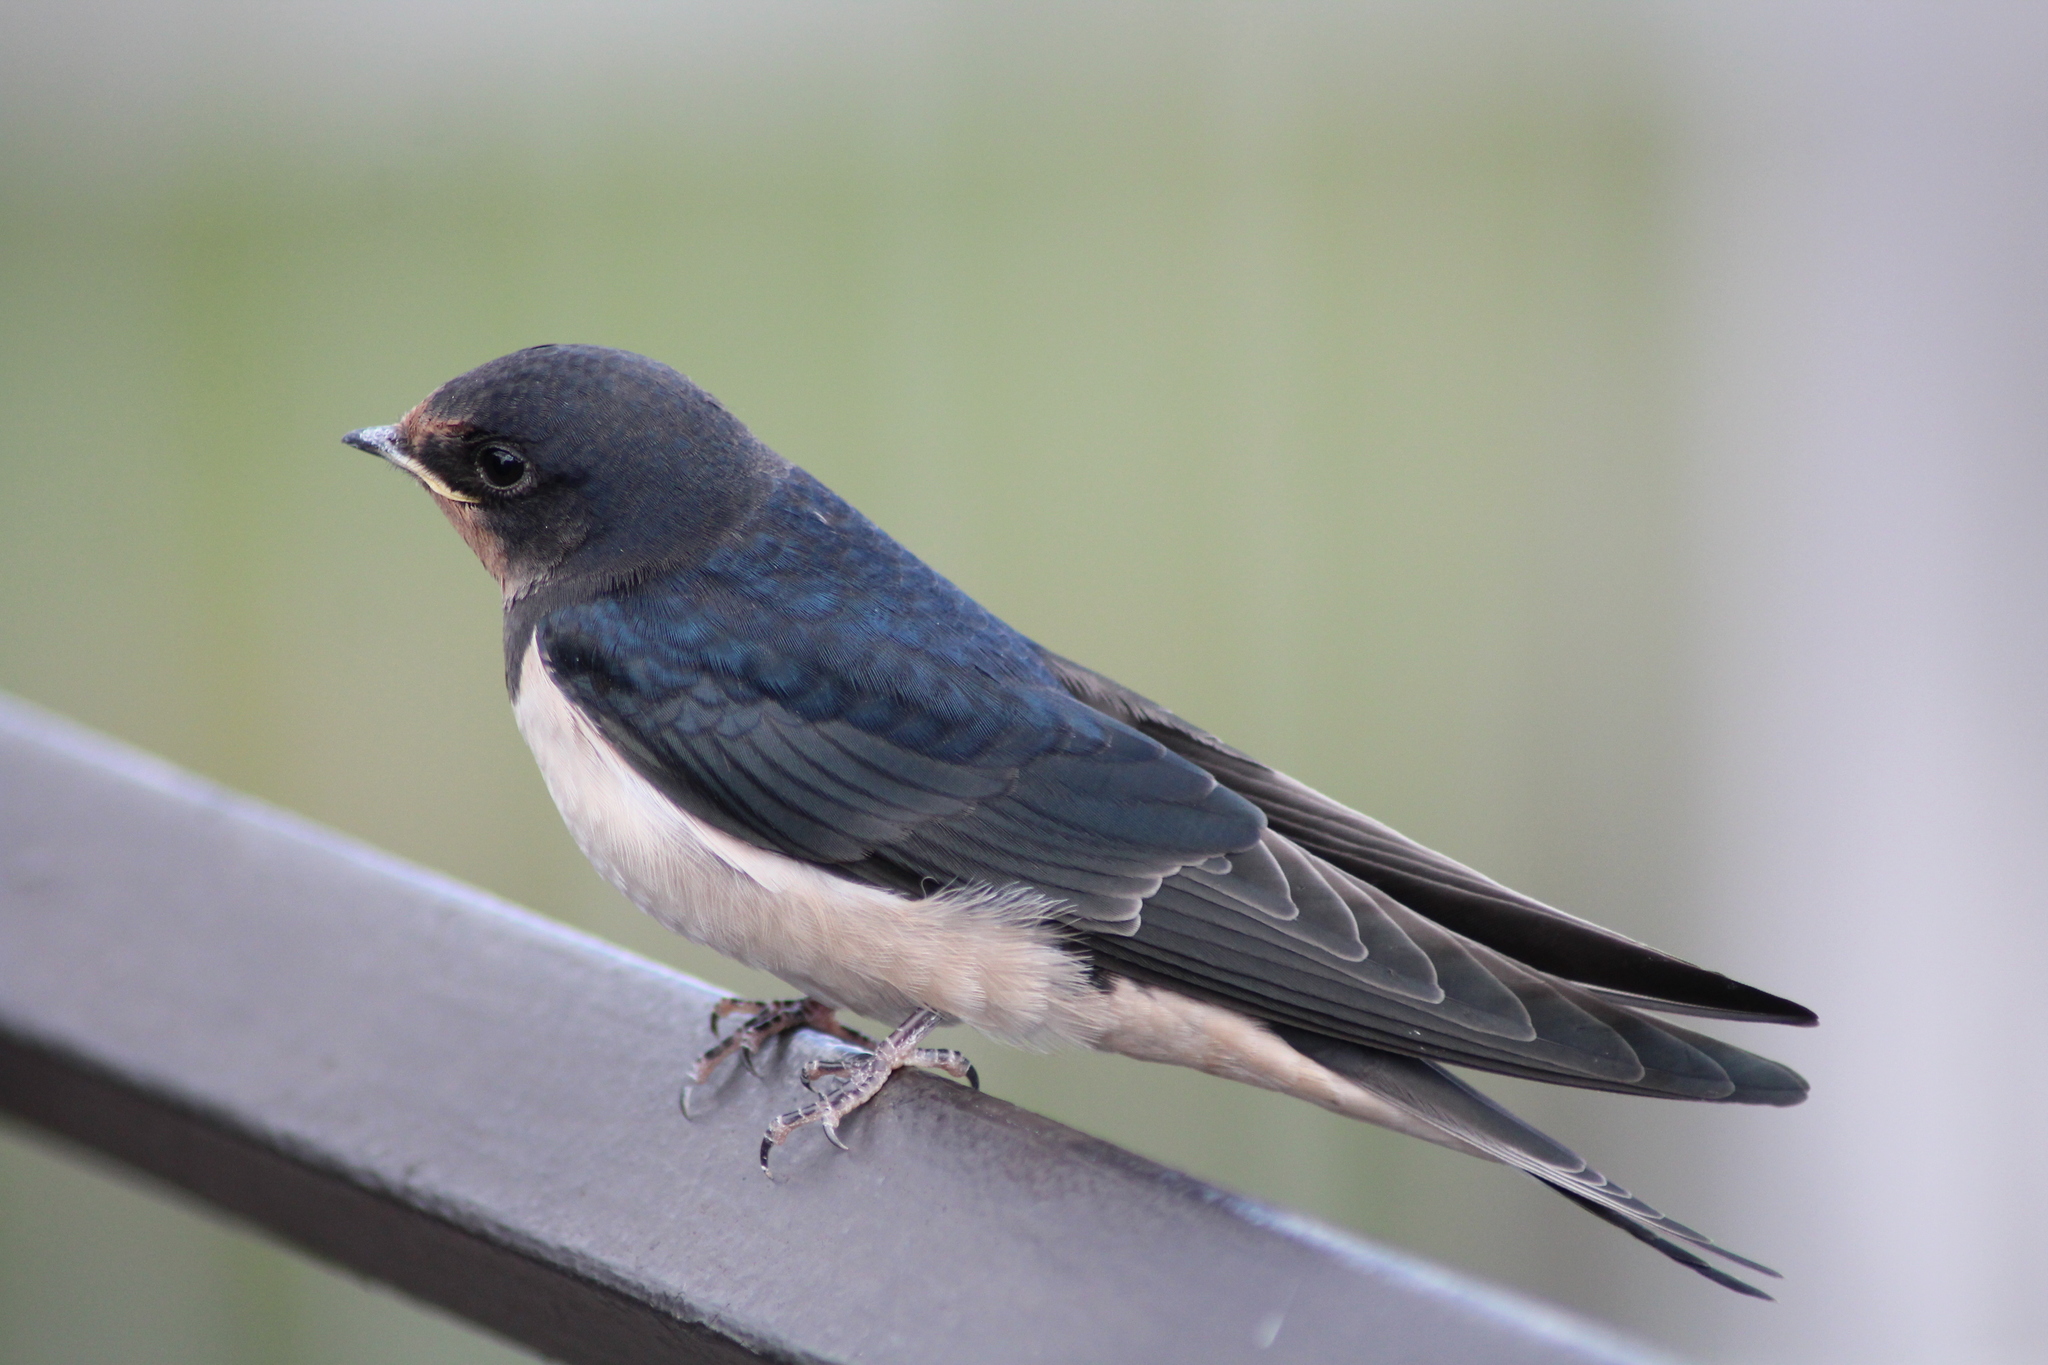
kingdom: Animalia
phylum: Chordata
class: Aves
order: Passeriformes
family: Hirundinidae
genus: Hirundo
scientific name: Hirundo rustica
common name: Barn swallow
